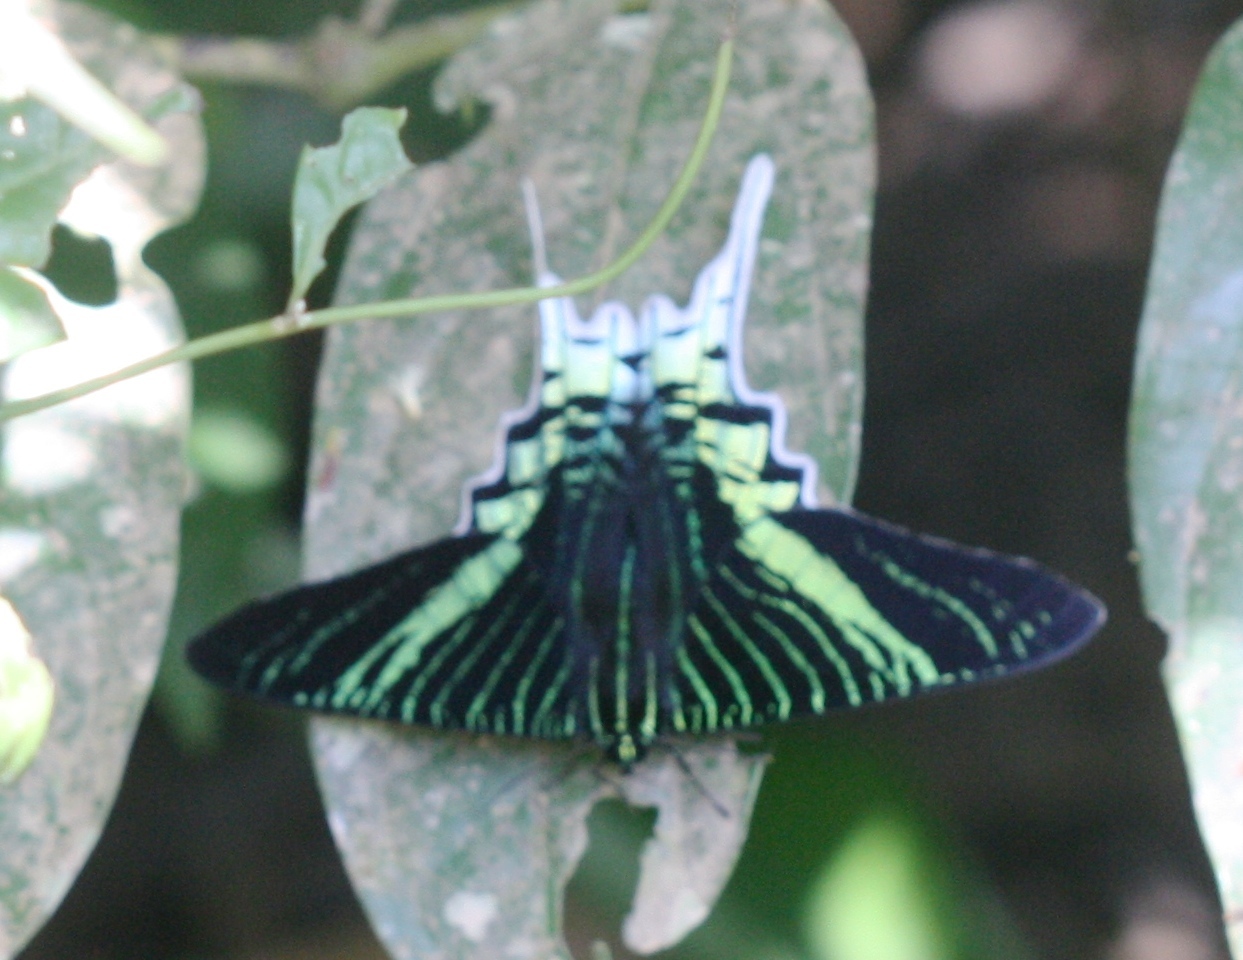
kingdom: Animalia
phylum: Arthropoda
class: Insecta
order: Lepidoptera
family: Uraniidae
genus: Urania
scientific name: Urania leilus
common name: Peacock moth
